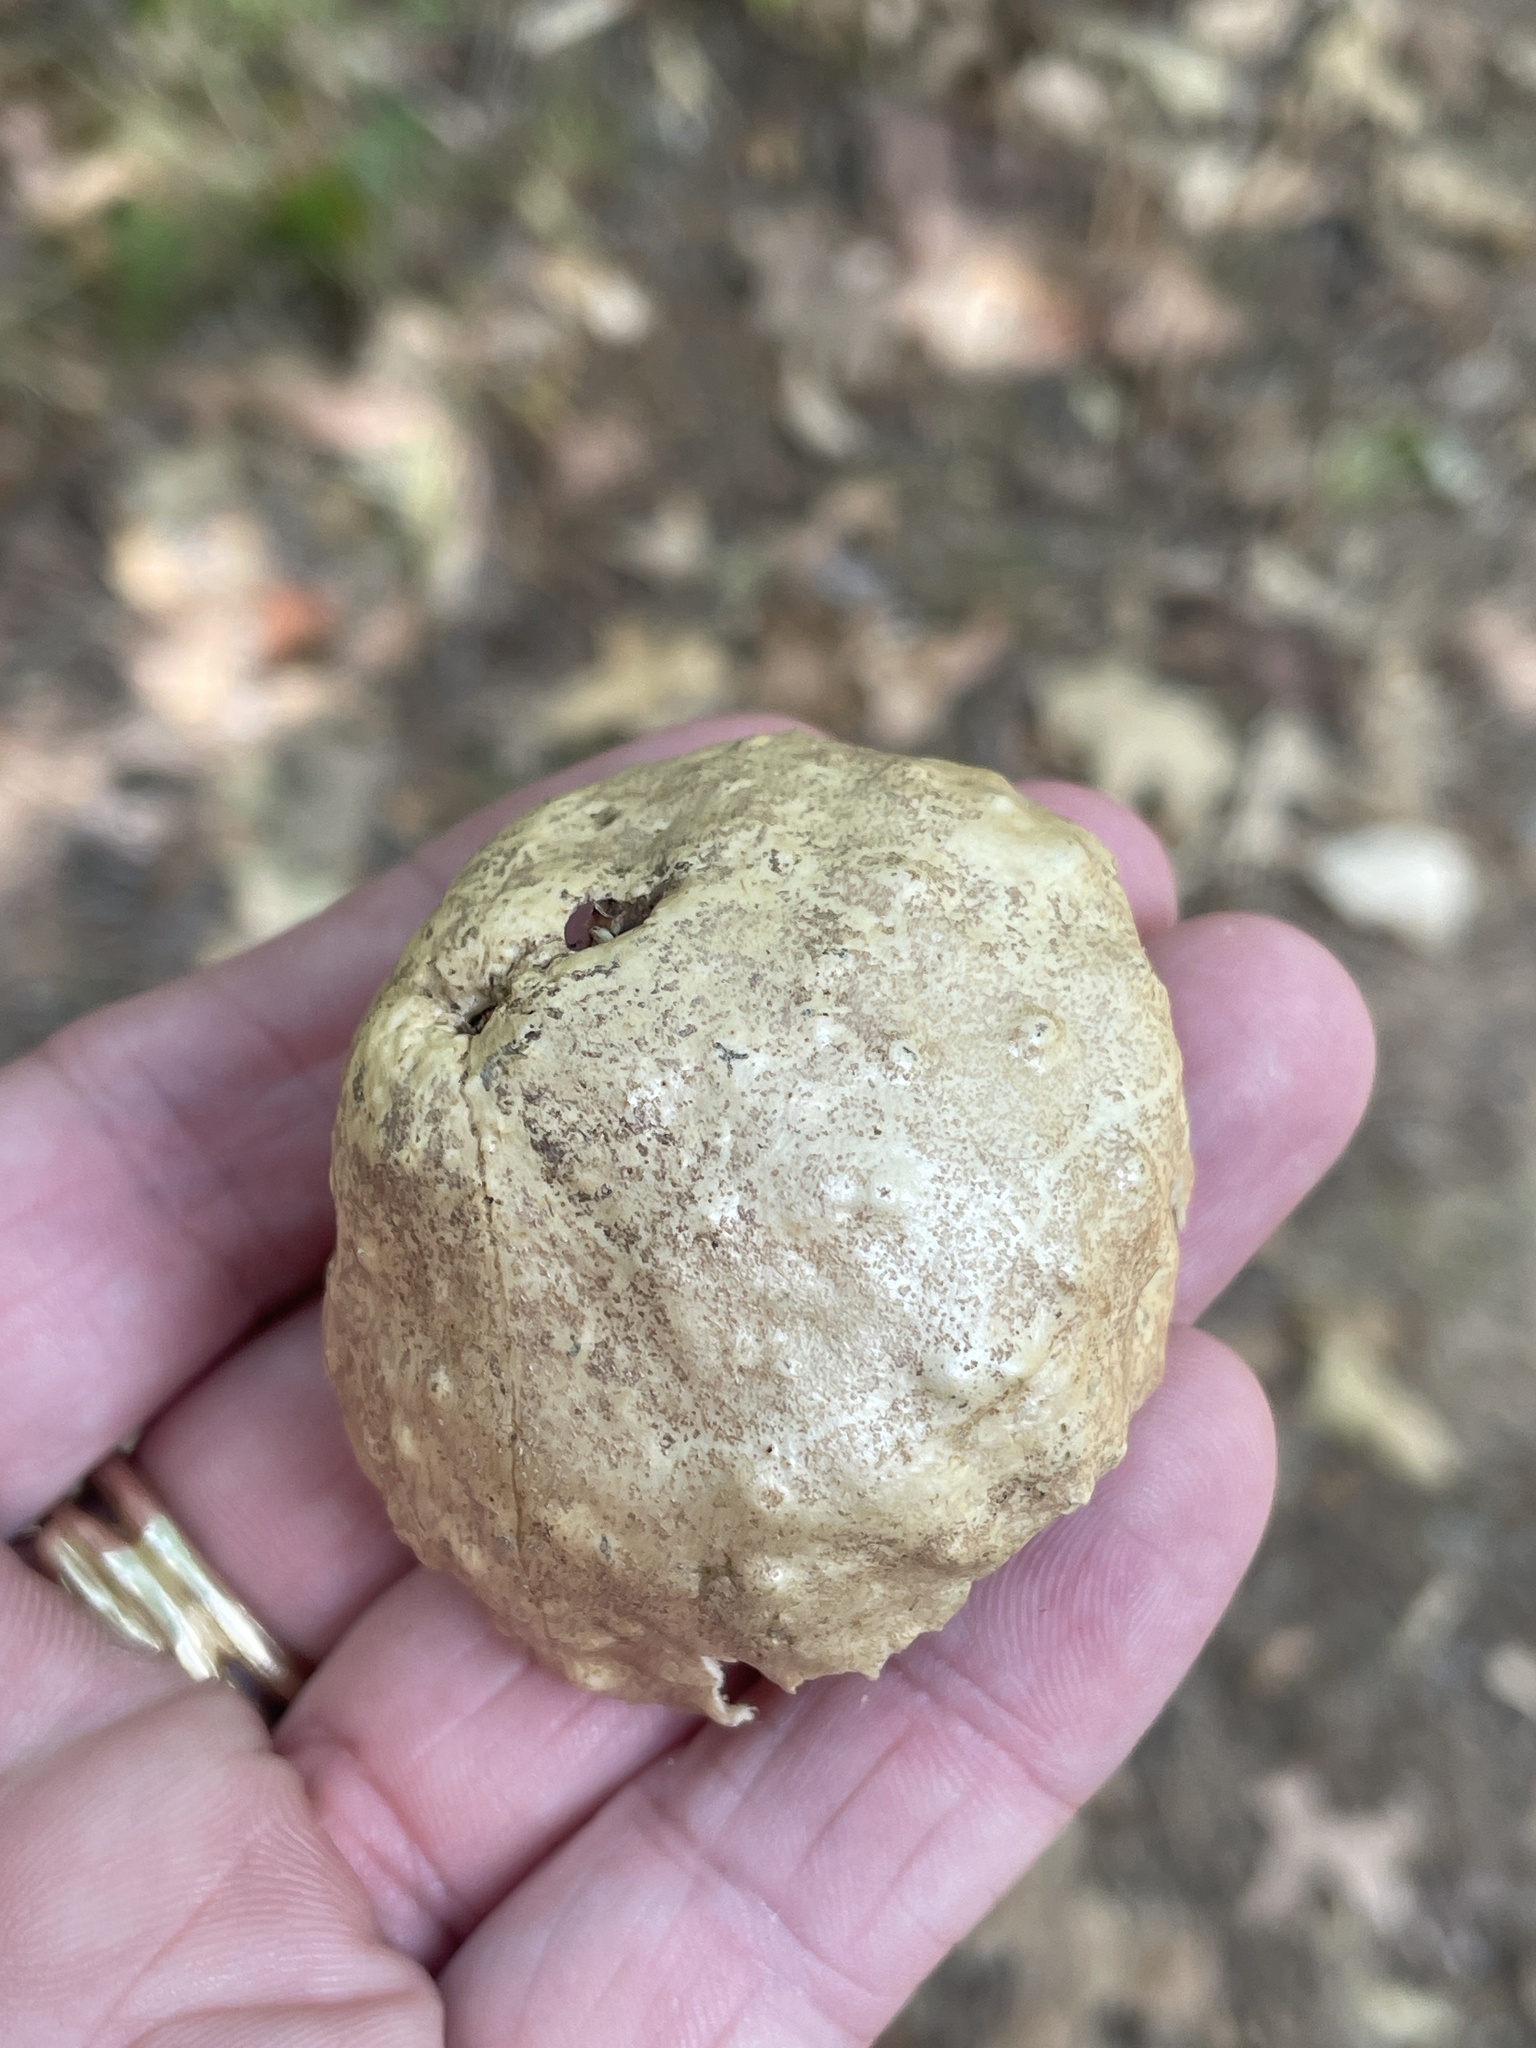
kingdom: Animalia
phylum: Arthropoda
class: Insecta
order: Hymenoptera
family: Cynipidae
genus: Amphibolips
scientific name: Amphibolips
